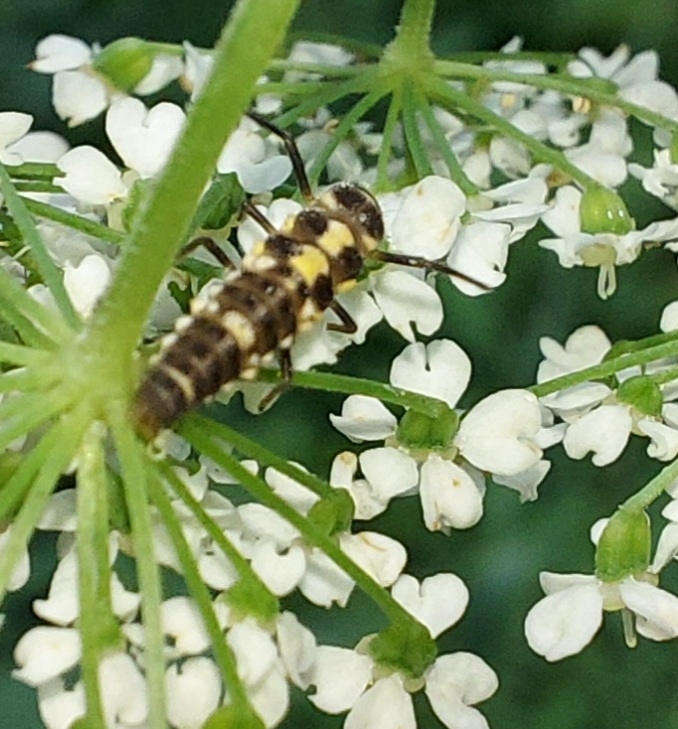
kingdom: Animalia
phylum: Arthropoda
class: Insecta
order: Coleoptera
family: Coccinellidae
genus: Propylaea
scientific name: Propylaea quatuordecimpunctata
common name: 14-spotted ladybird beetle
